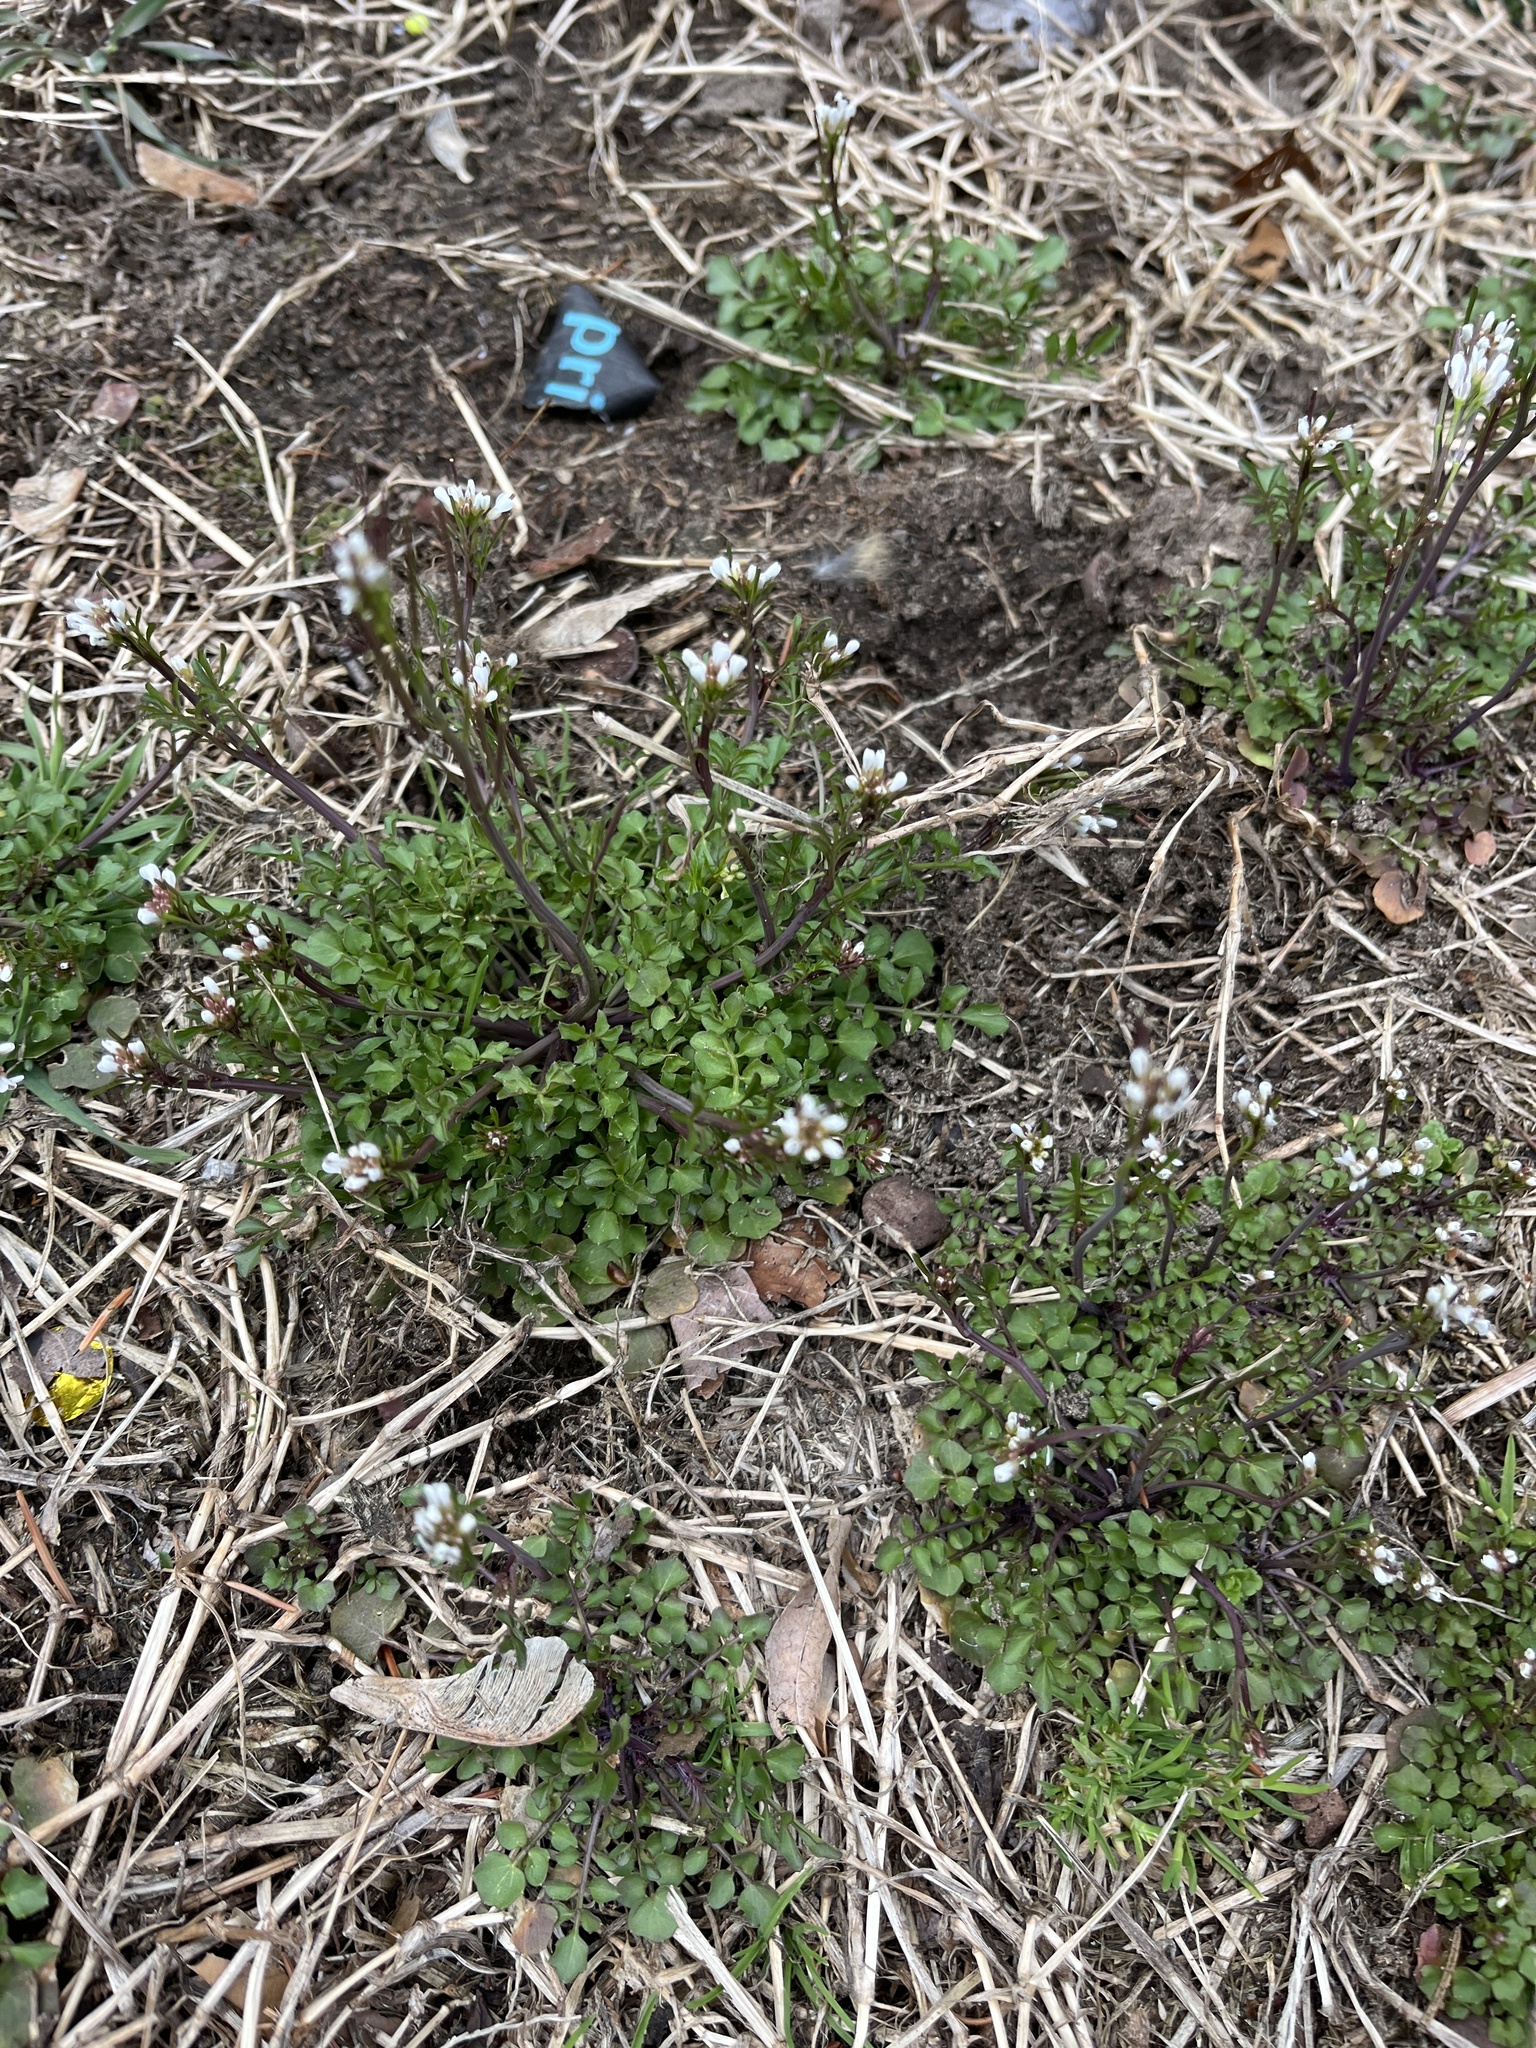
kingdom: Plantae
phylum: Tracheophyta
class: Magnoliopsida
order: Brassicales
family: Brassicaceae
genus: Cardamine
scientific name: Cardamine hirsuta
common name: Hairy bittercress
